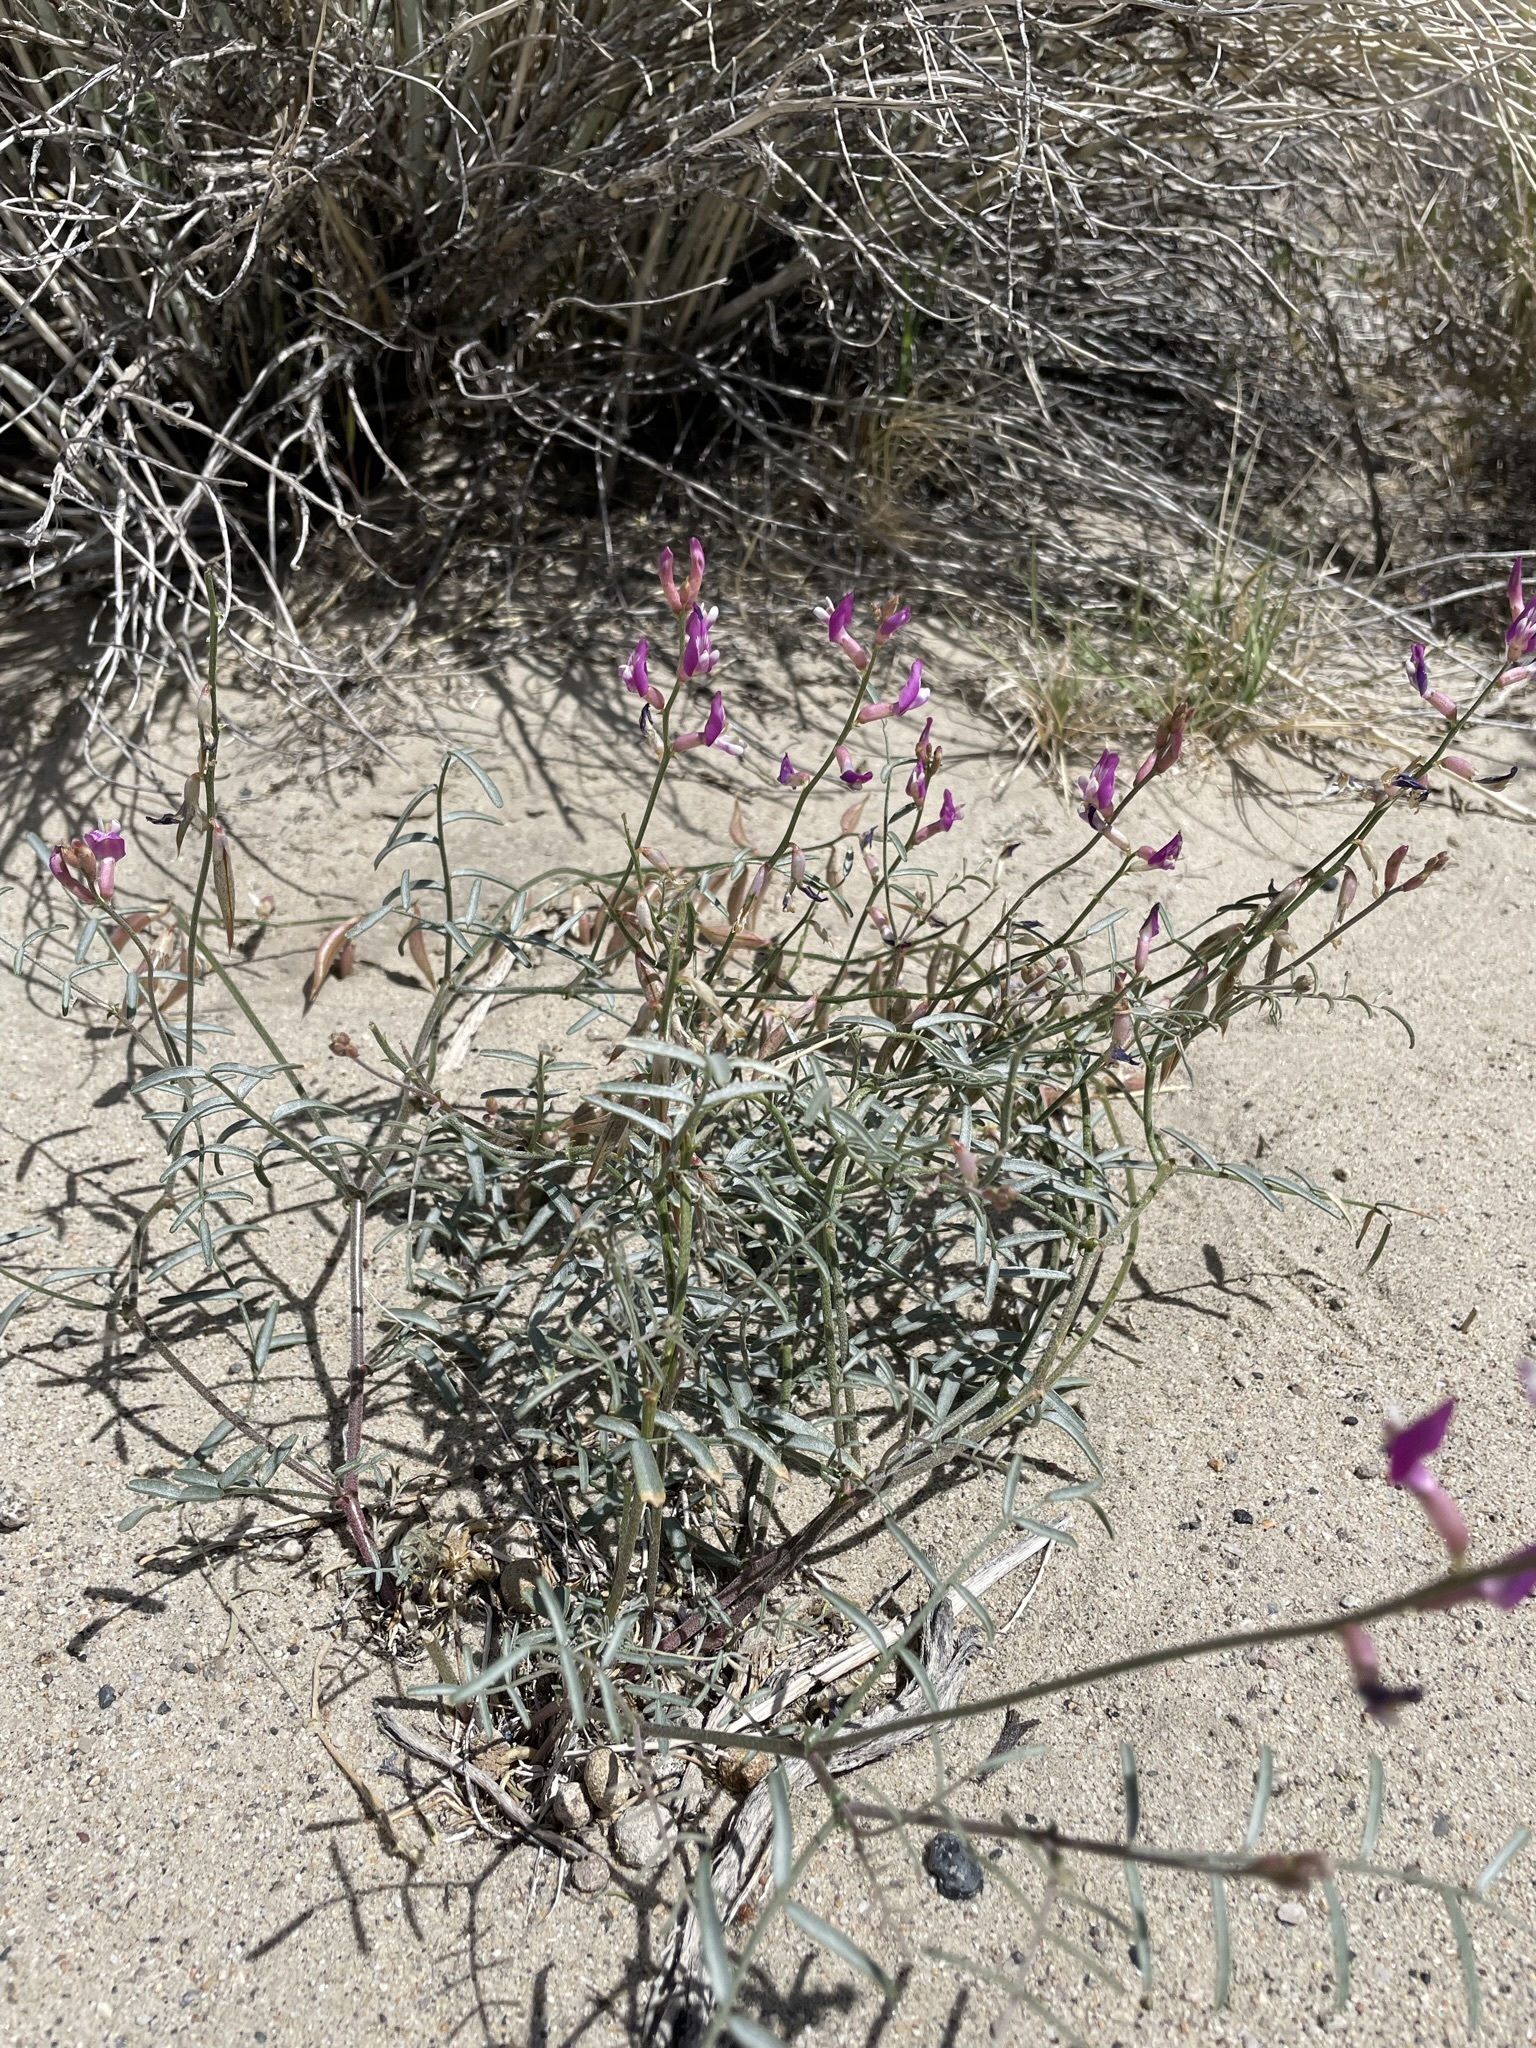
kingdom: Plantae
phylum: Tracheophyta
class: Magnoliopsida
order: Fabales
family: Fabaceae
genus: Astragalus
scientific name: Astragalus casei
